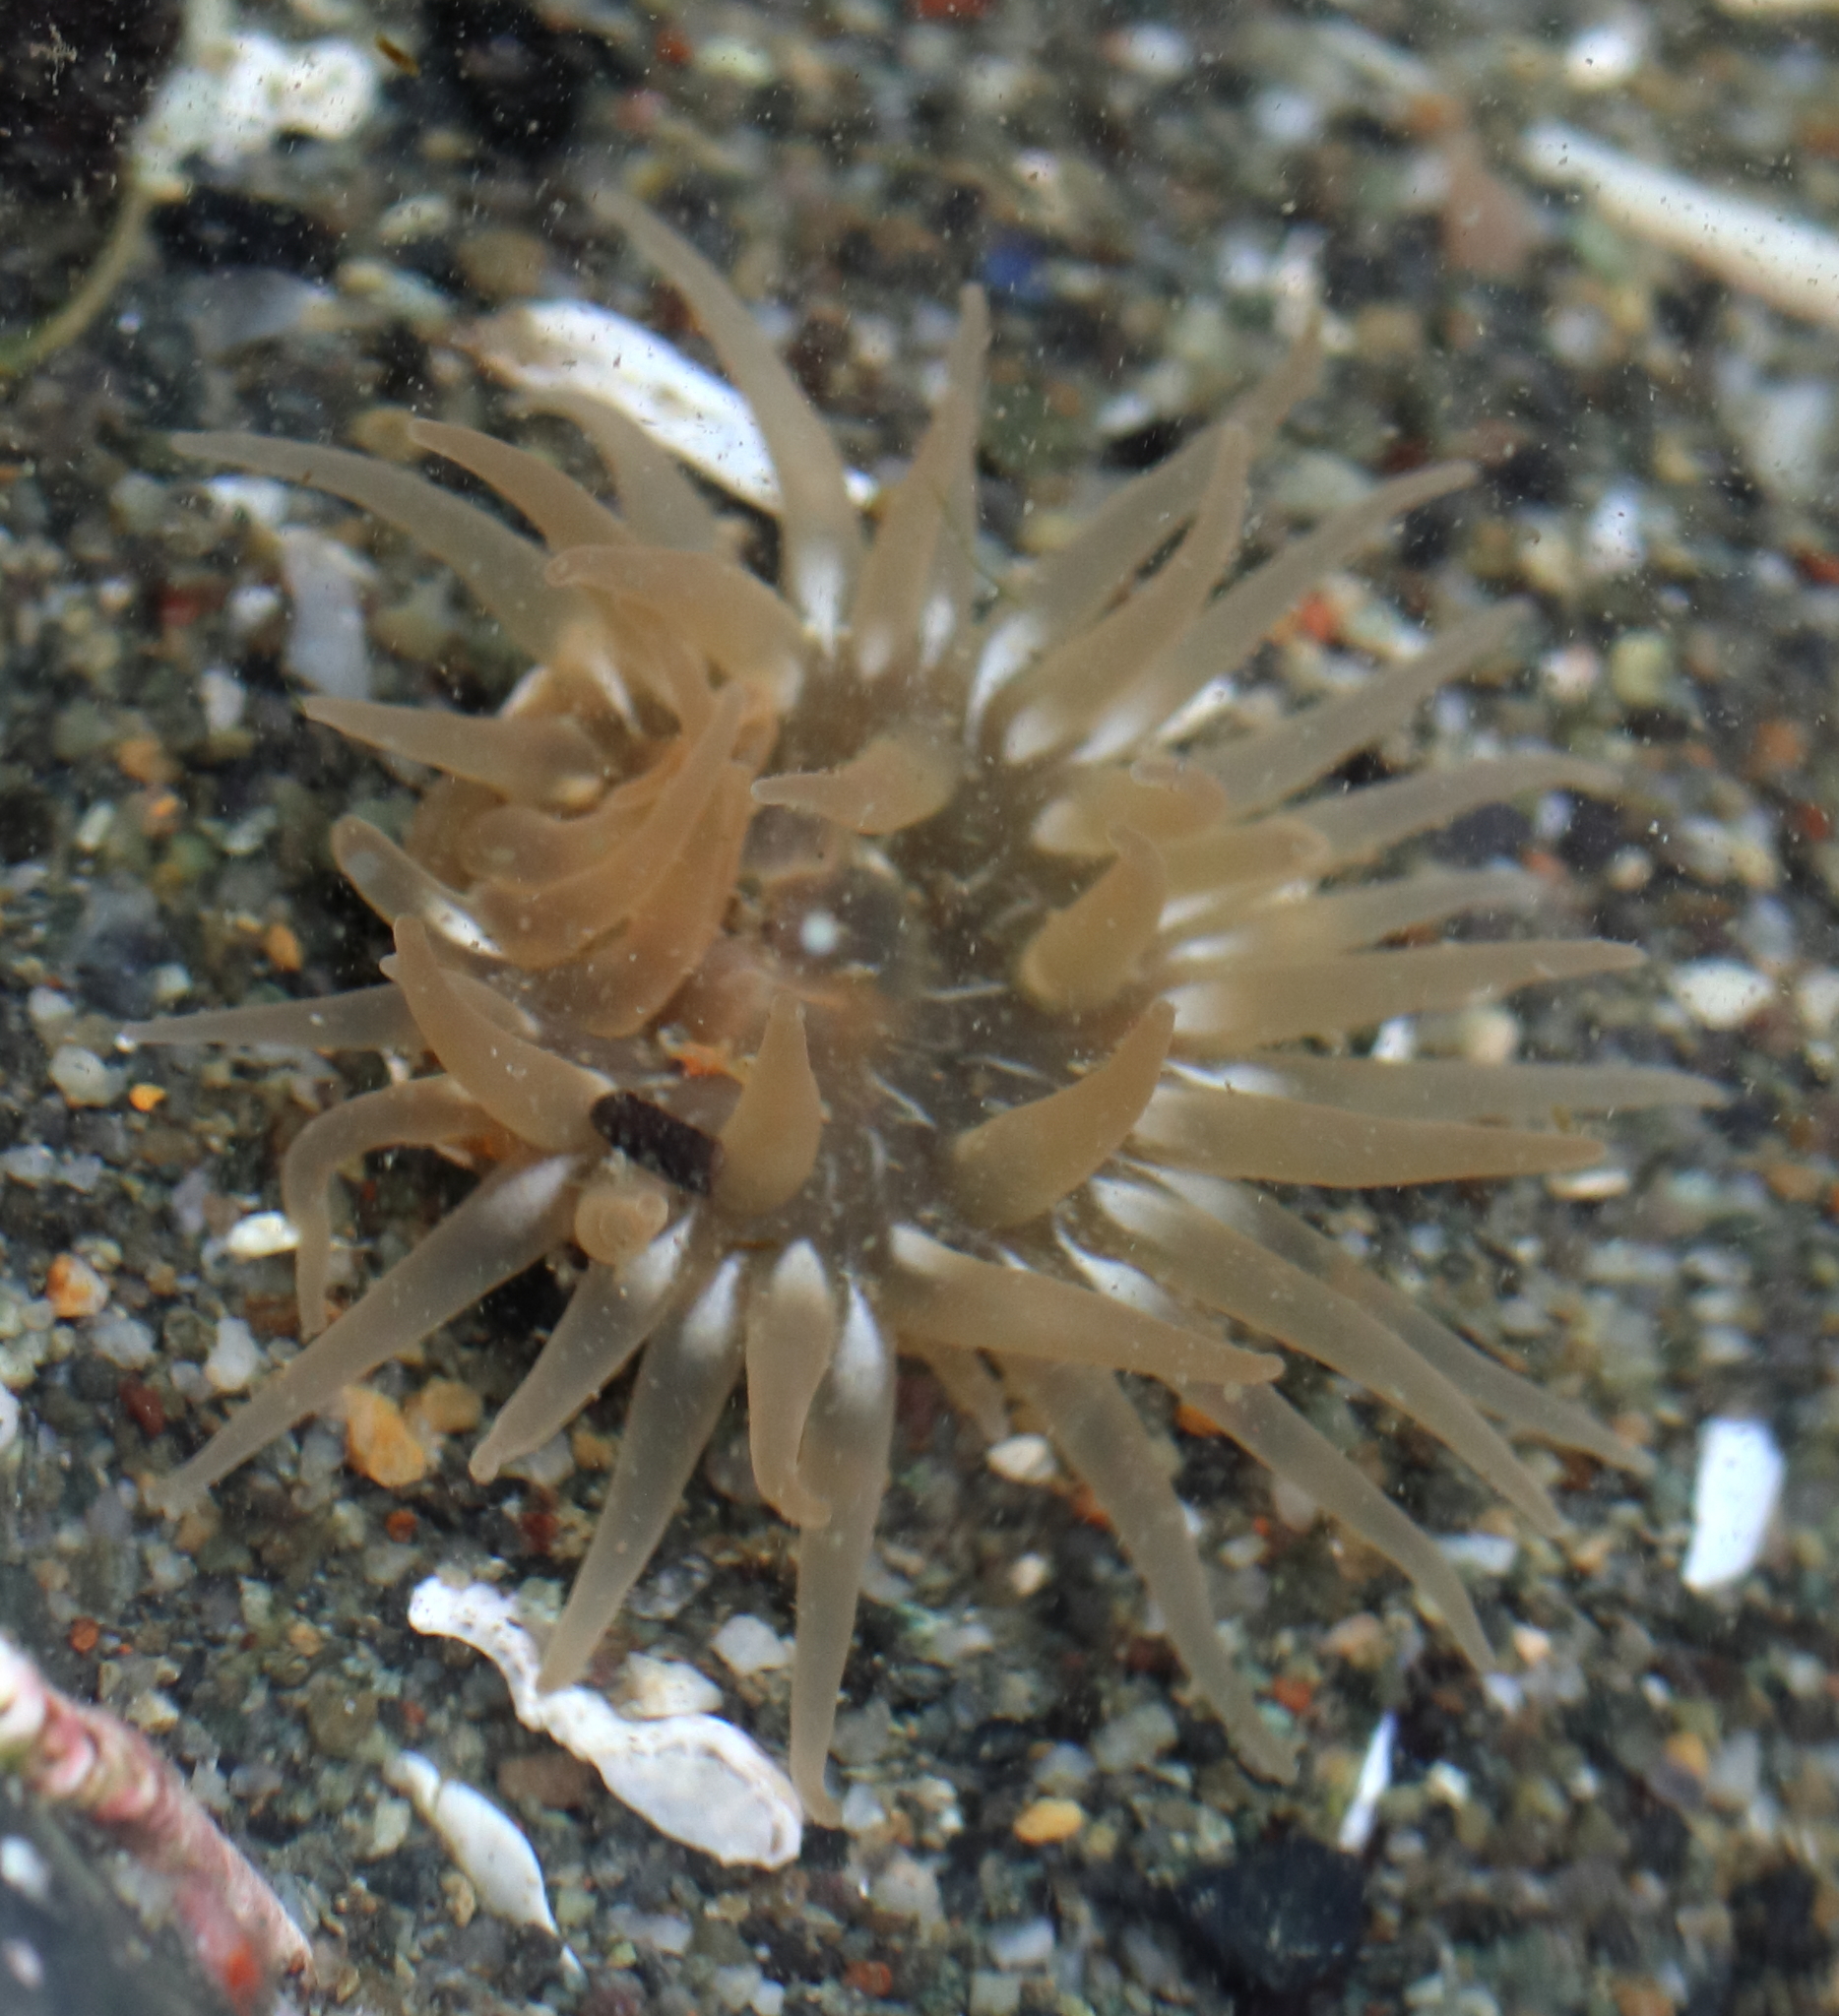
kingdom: Animalia
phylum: Cnidaria
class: Anthozoa
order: Actiniaria
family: Actiniidae
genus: Aulactinia
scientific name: Aulactinia incubans
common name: Incubating anemone
